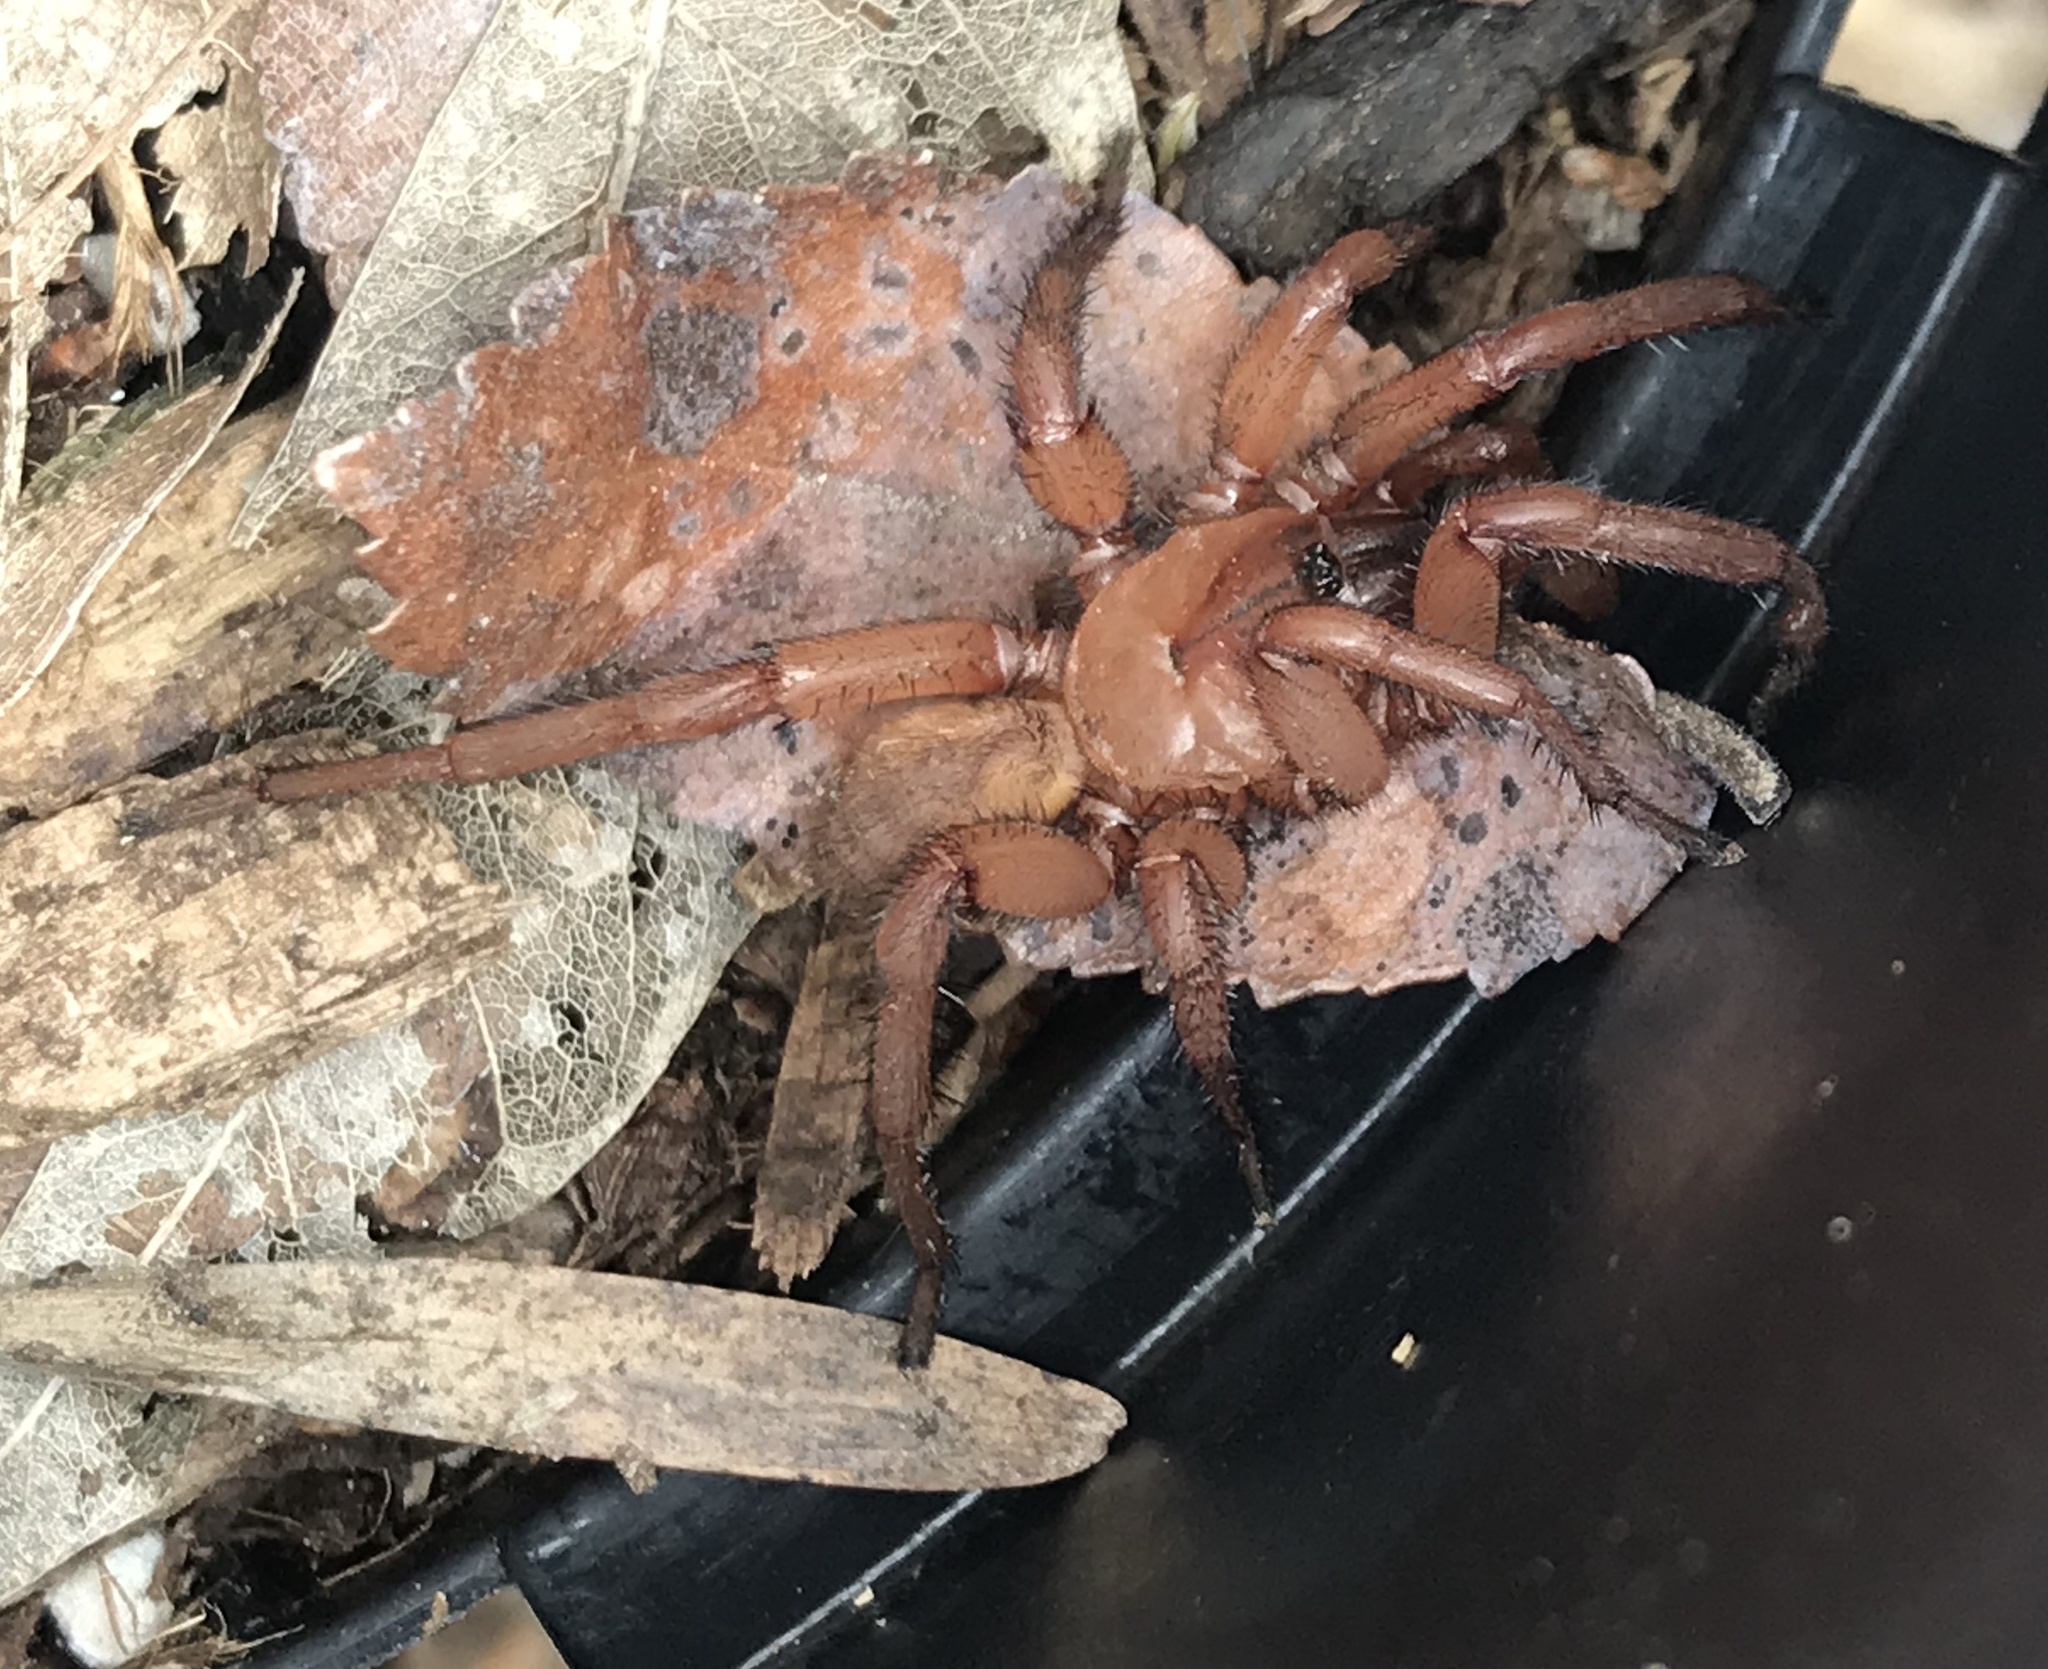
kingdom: Animalia
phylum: Arthropoda
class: Arachnida
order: Araneae
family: Euctenizidae
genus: Myrmekiaphila
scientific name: Myrmekiaphila comstocki
